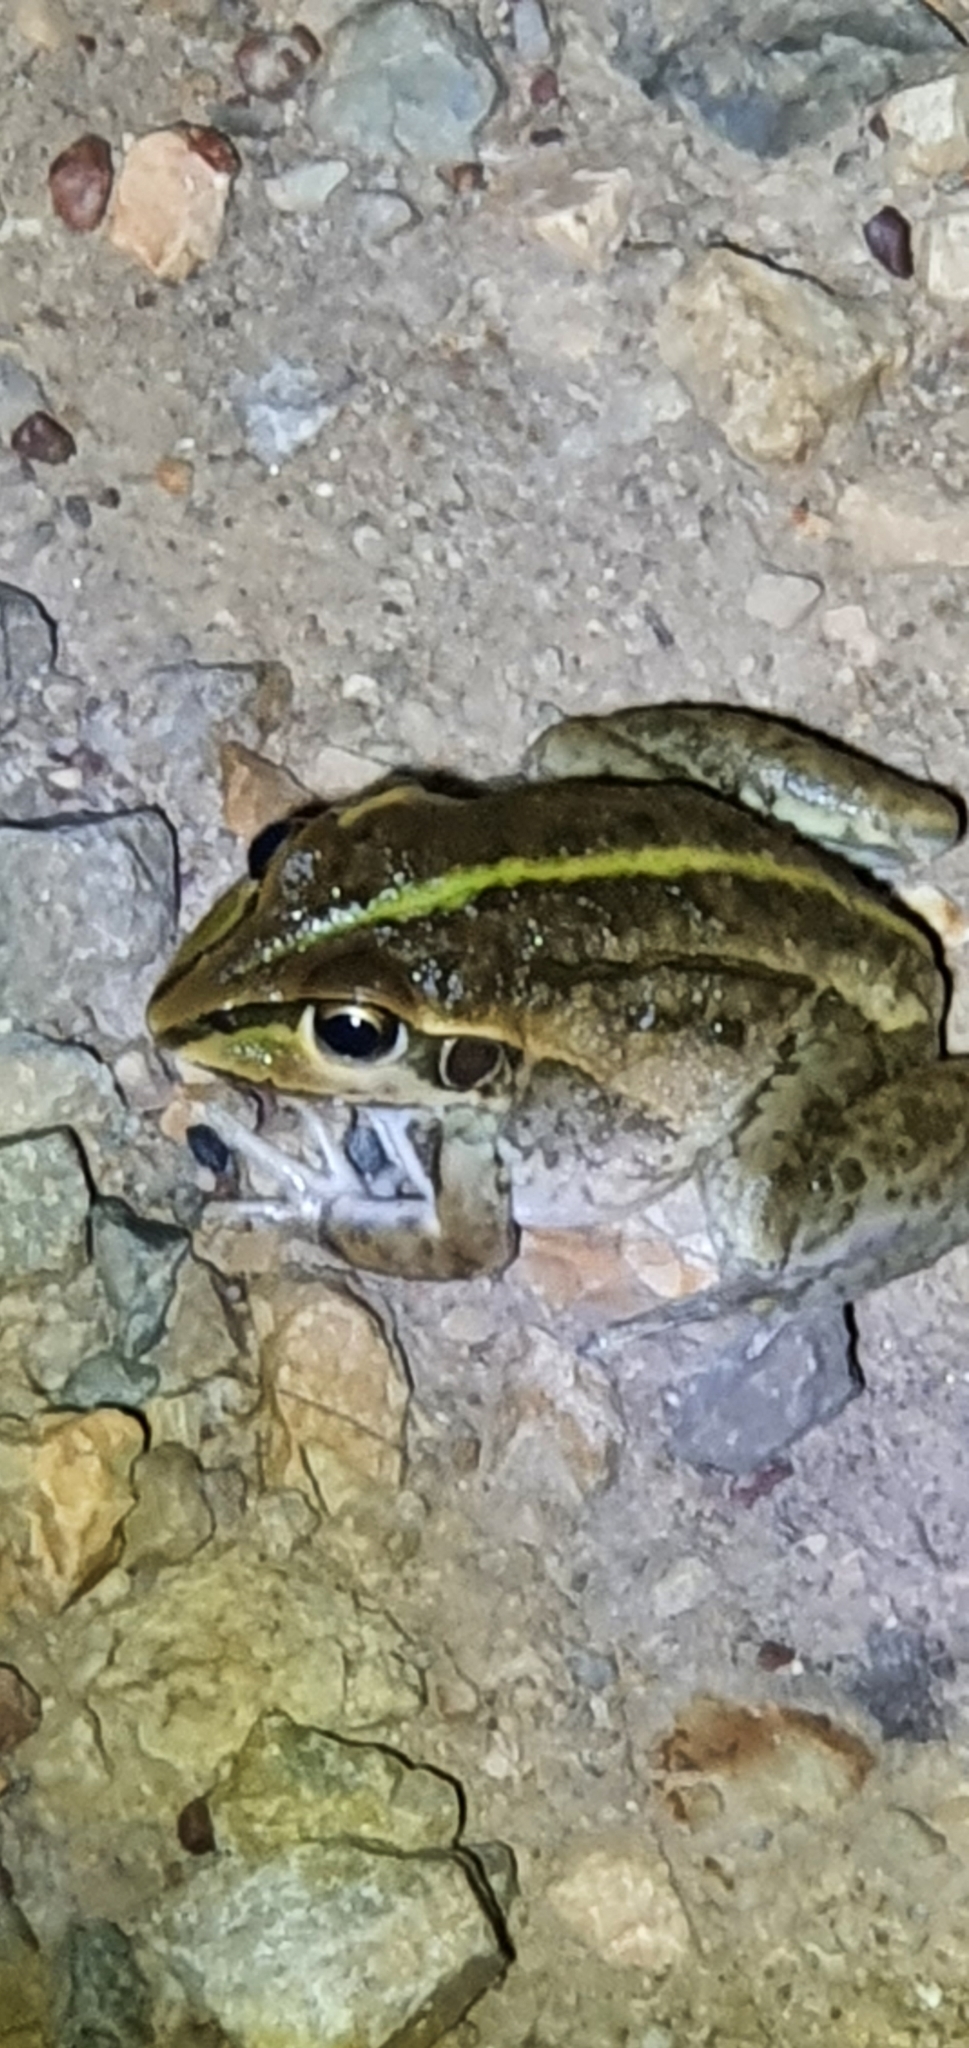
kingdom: Animalia
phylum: Chordata
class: Amphibia
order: Anura
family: Pelodryadidae
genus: Ranoidea
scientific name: Ranoidea alboguttata
